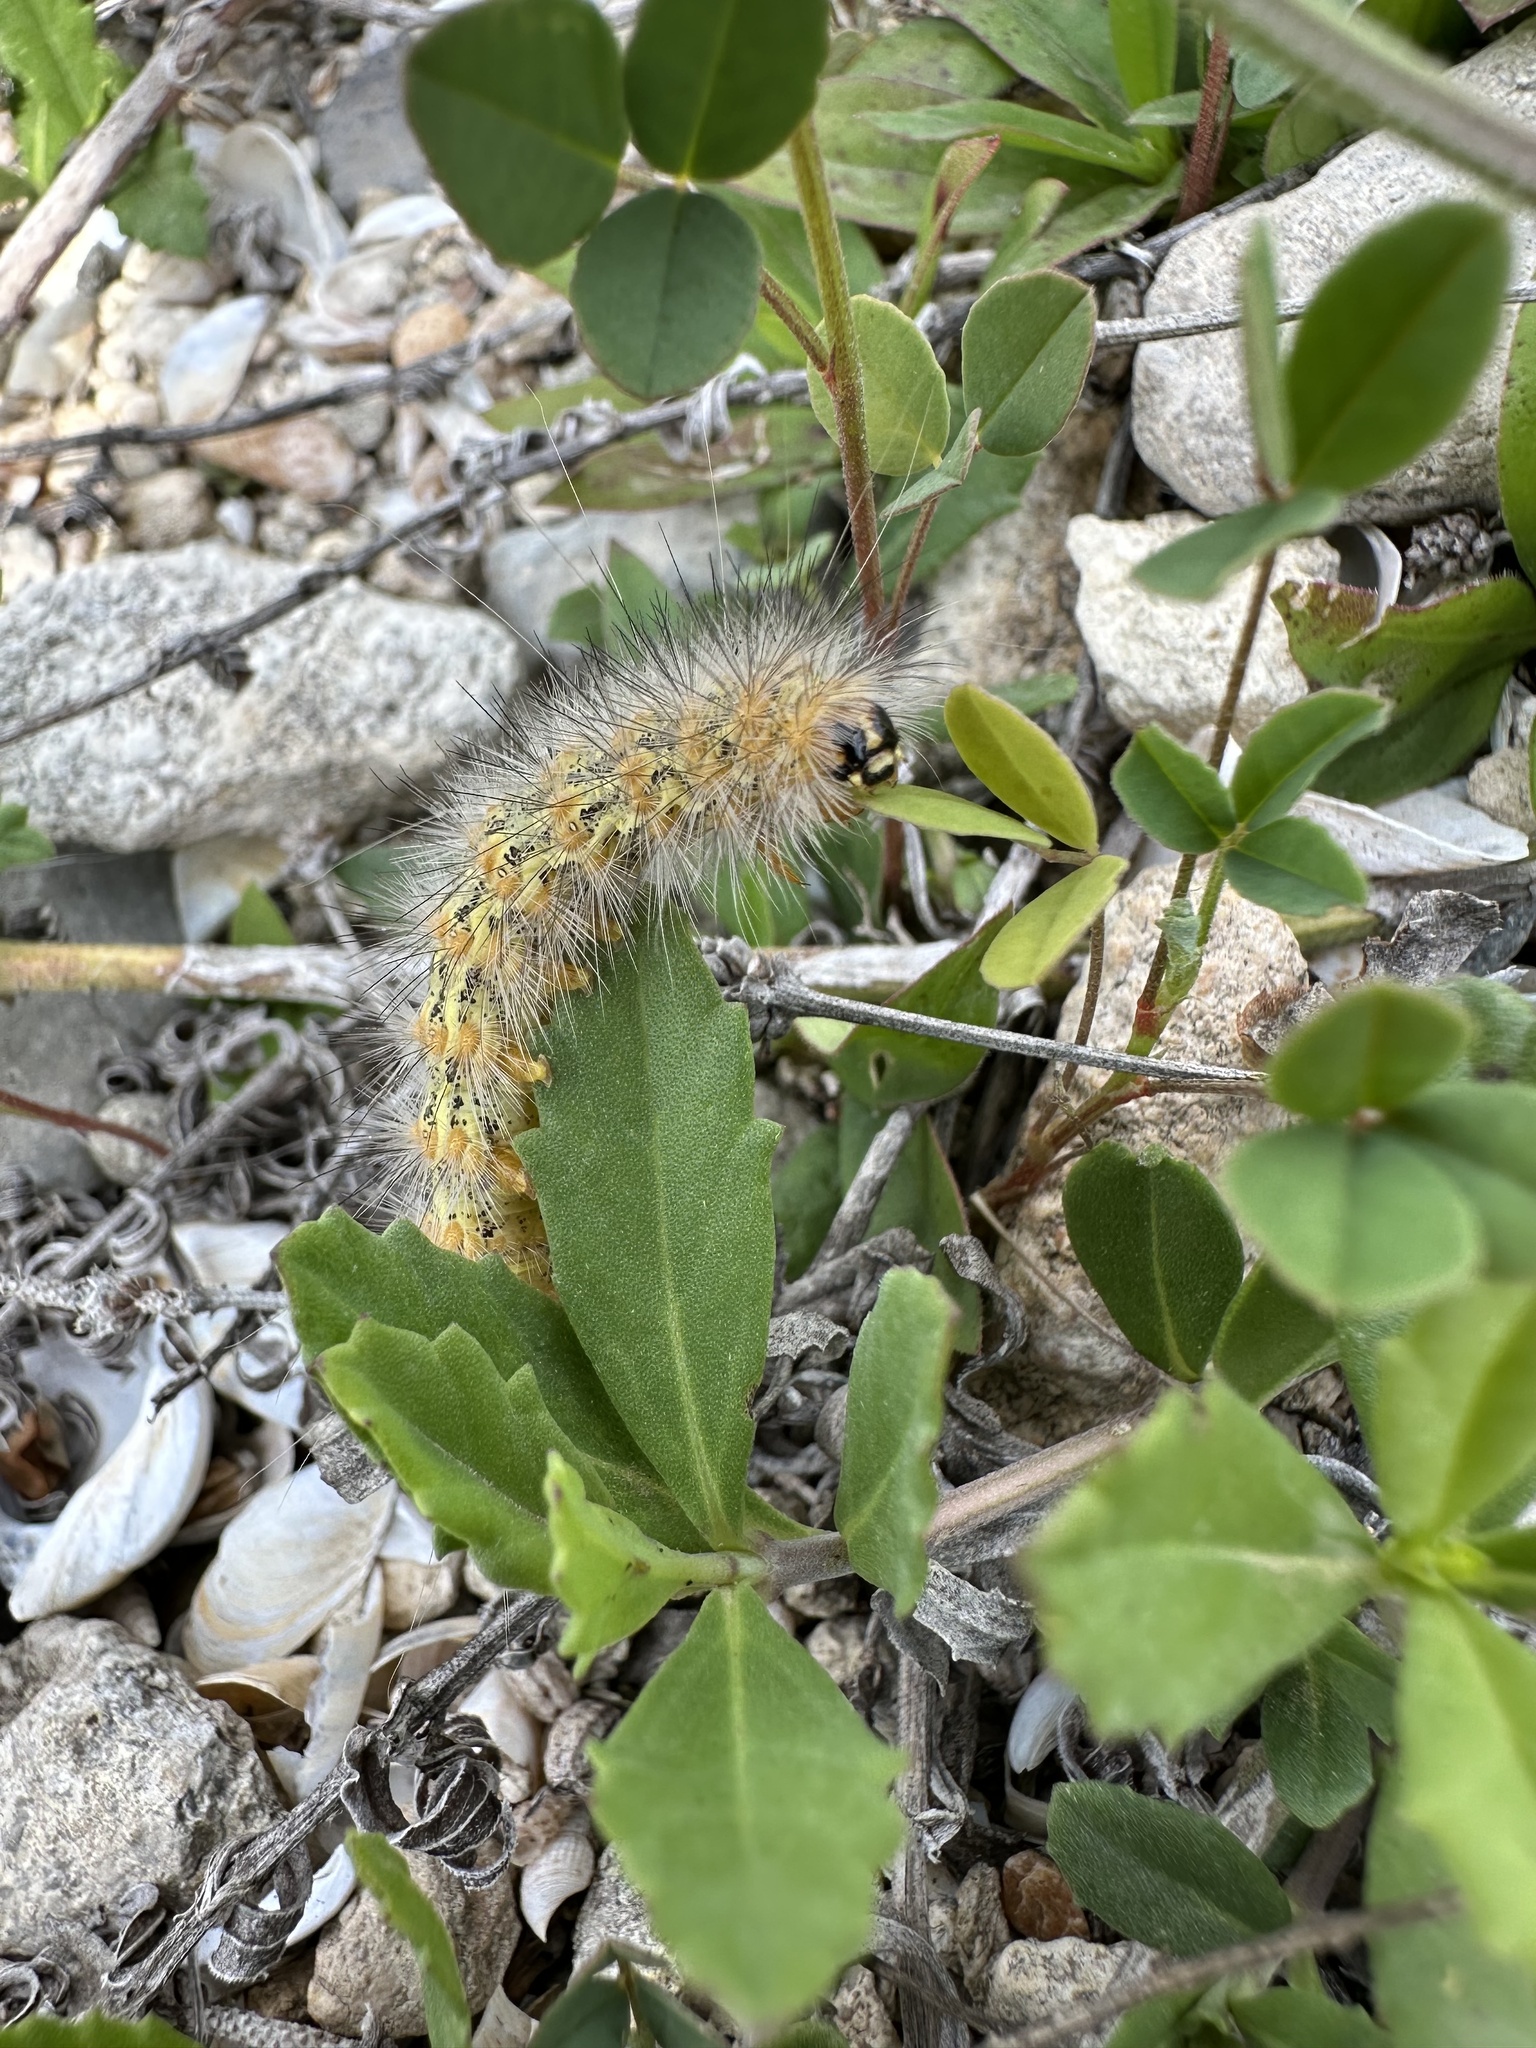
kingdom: Animalia
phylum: Arthropoda
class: Insecta
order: Lepidoptera
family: Erebidae
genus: Estigmene
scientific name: Estigmene acrea
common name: Salt marsh moth
